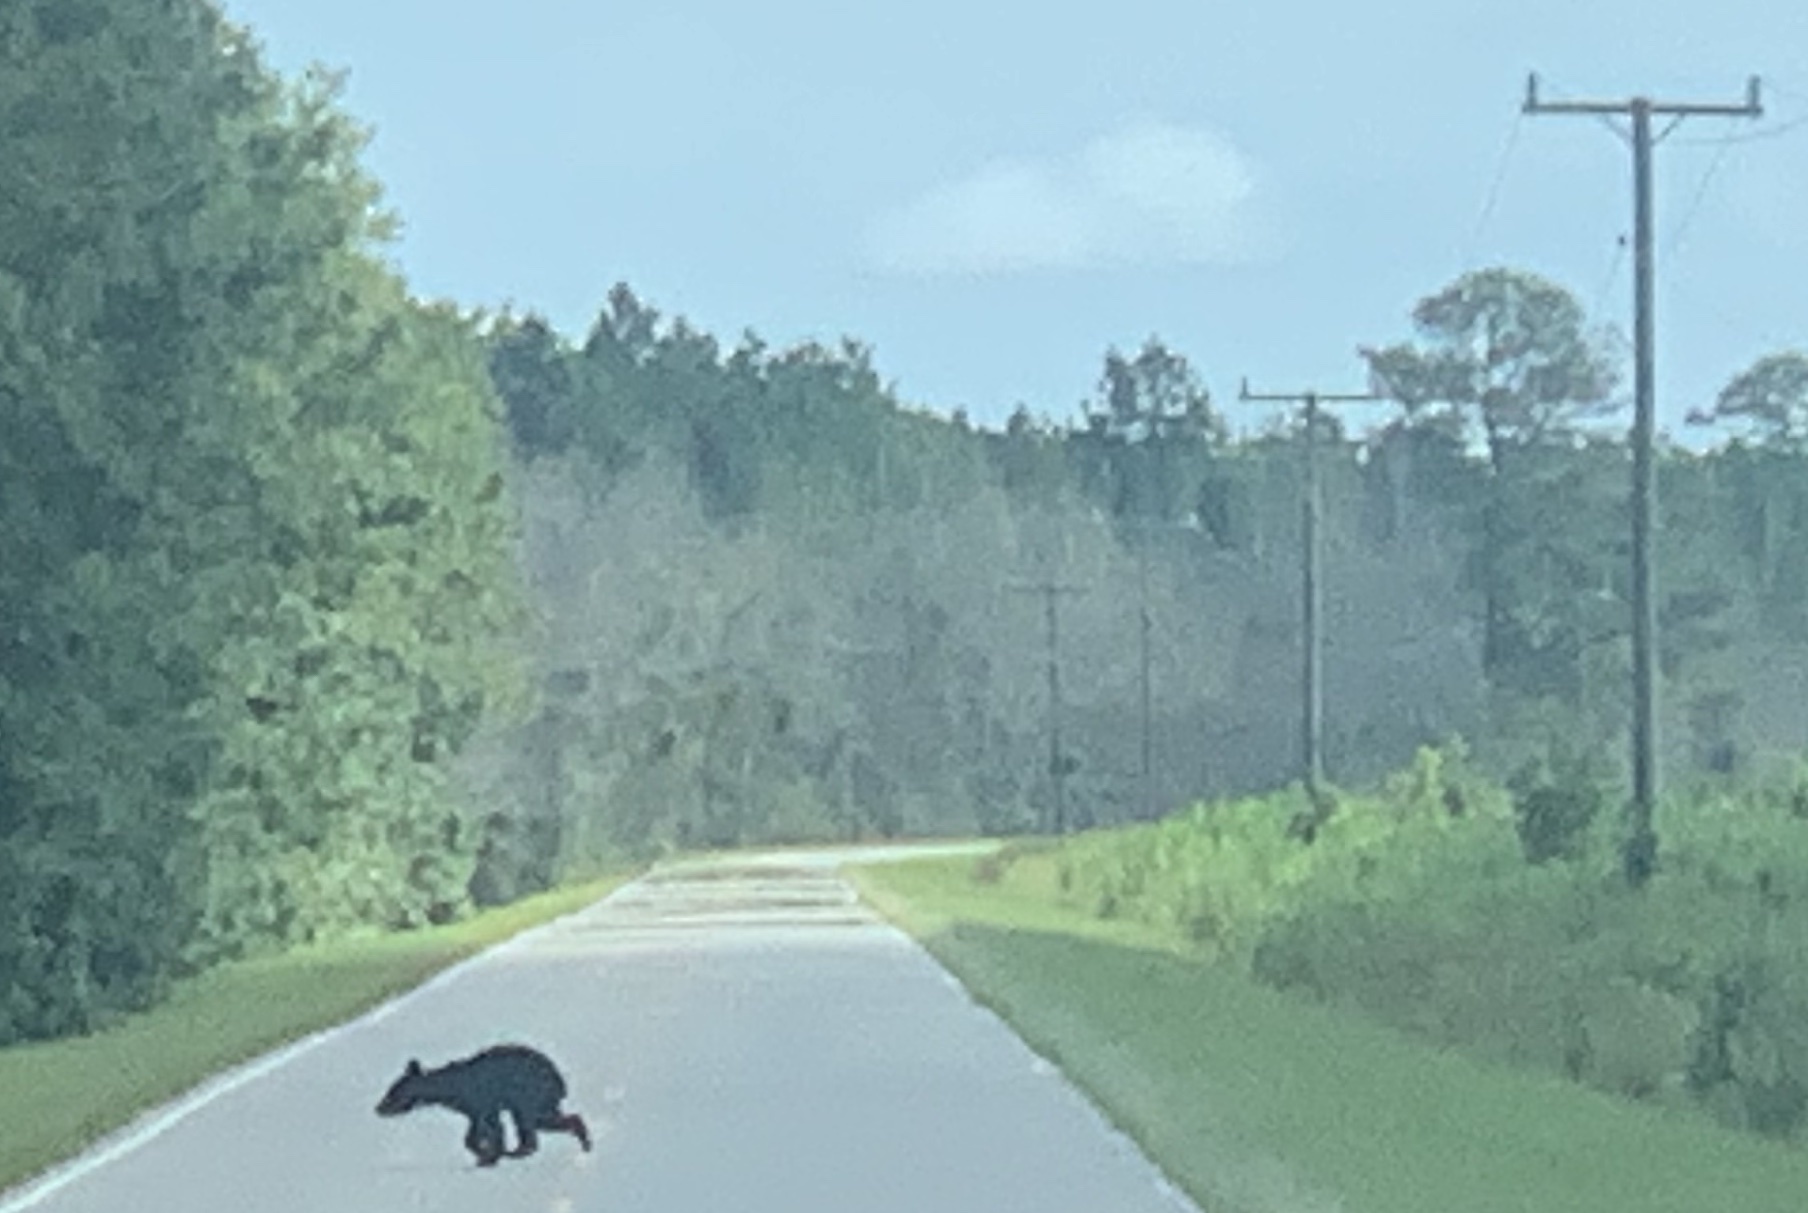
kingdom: Animalia
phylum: Chordata
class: Mammalia
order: Carnivora
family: Ursidae
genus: Ursus
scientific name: Ursus americanus
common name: American black bear
